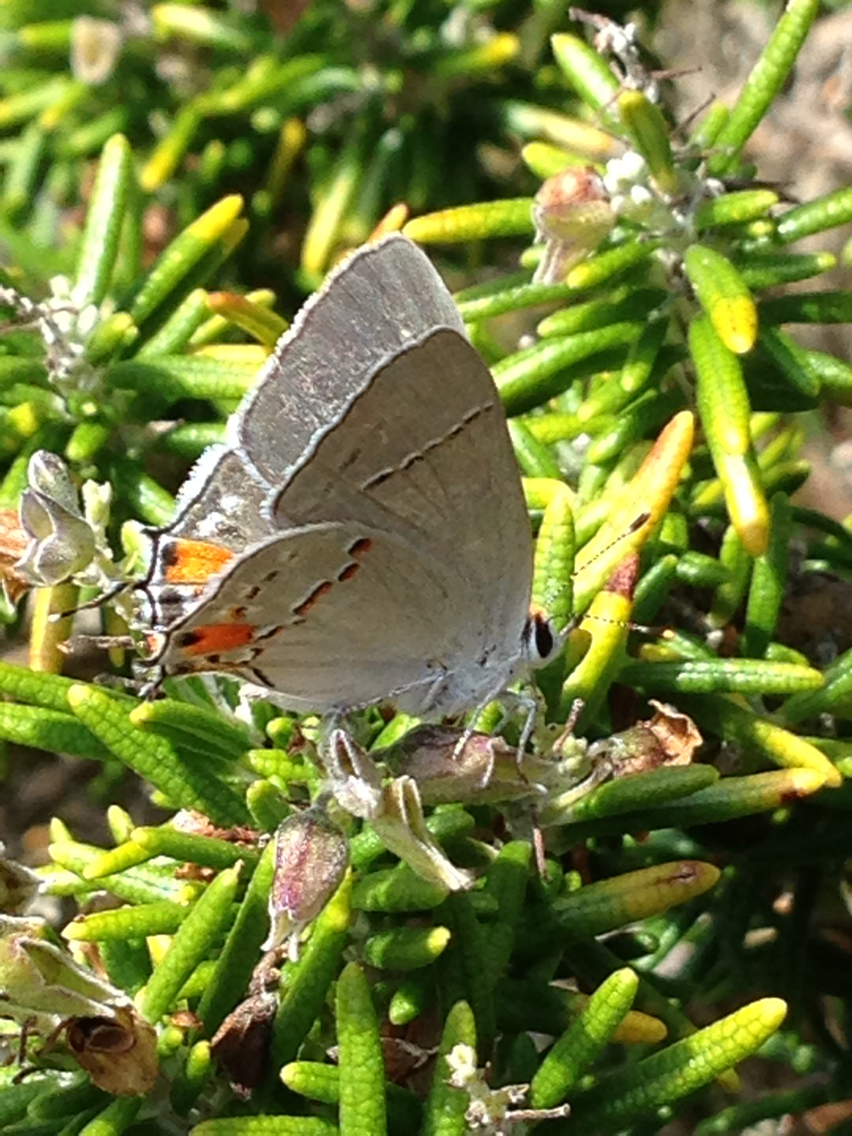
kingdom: Animalia
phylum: Arthropoda
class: Insecta
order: Lepidoptera
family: Lycaenidae
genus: Strymon
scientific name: Strymon melinus
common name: Gray hairstreak
